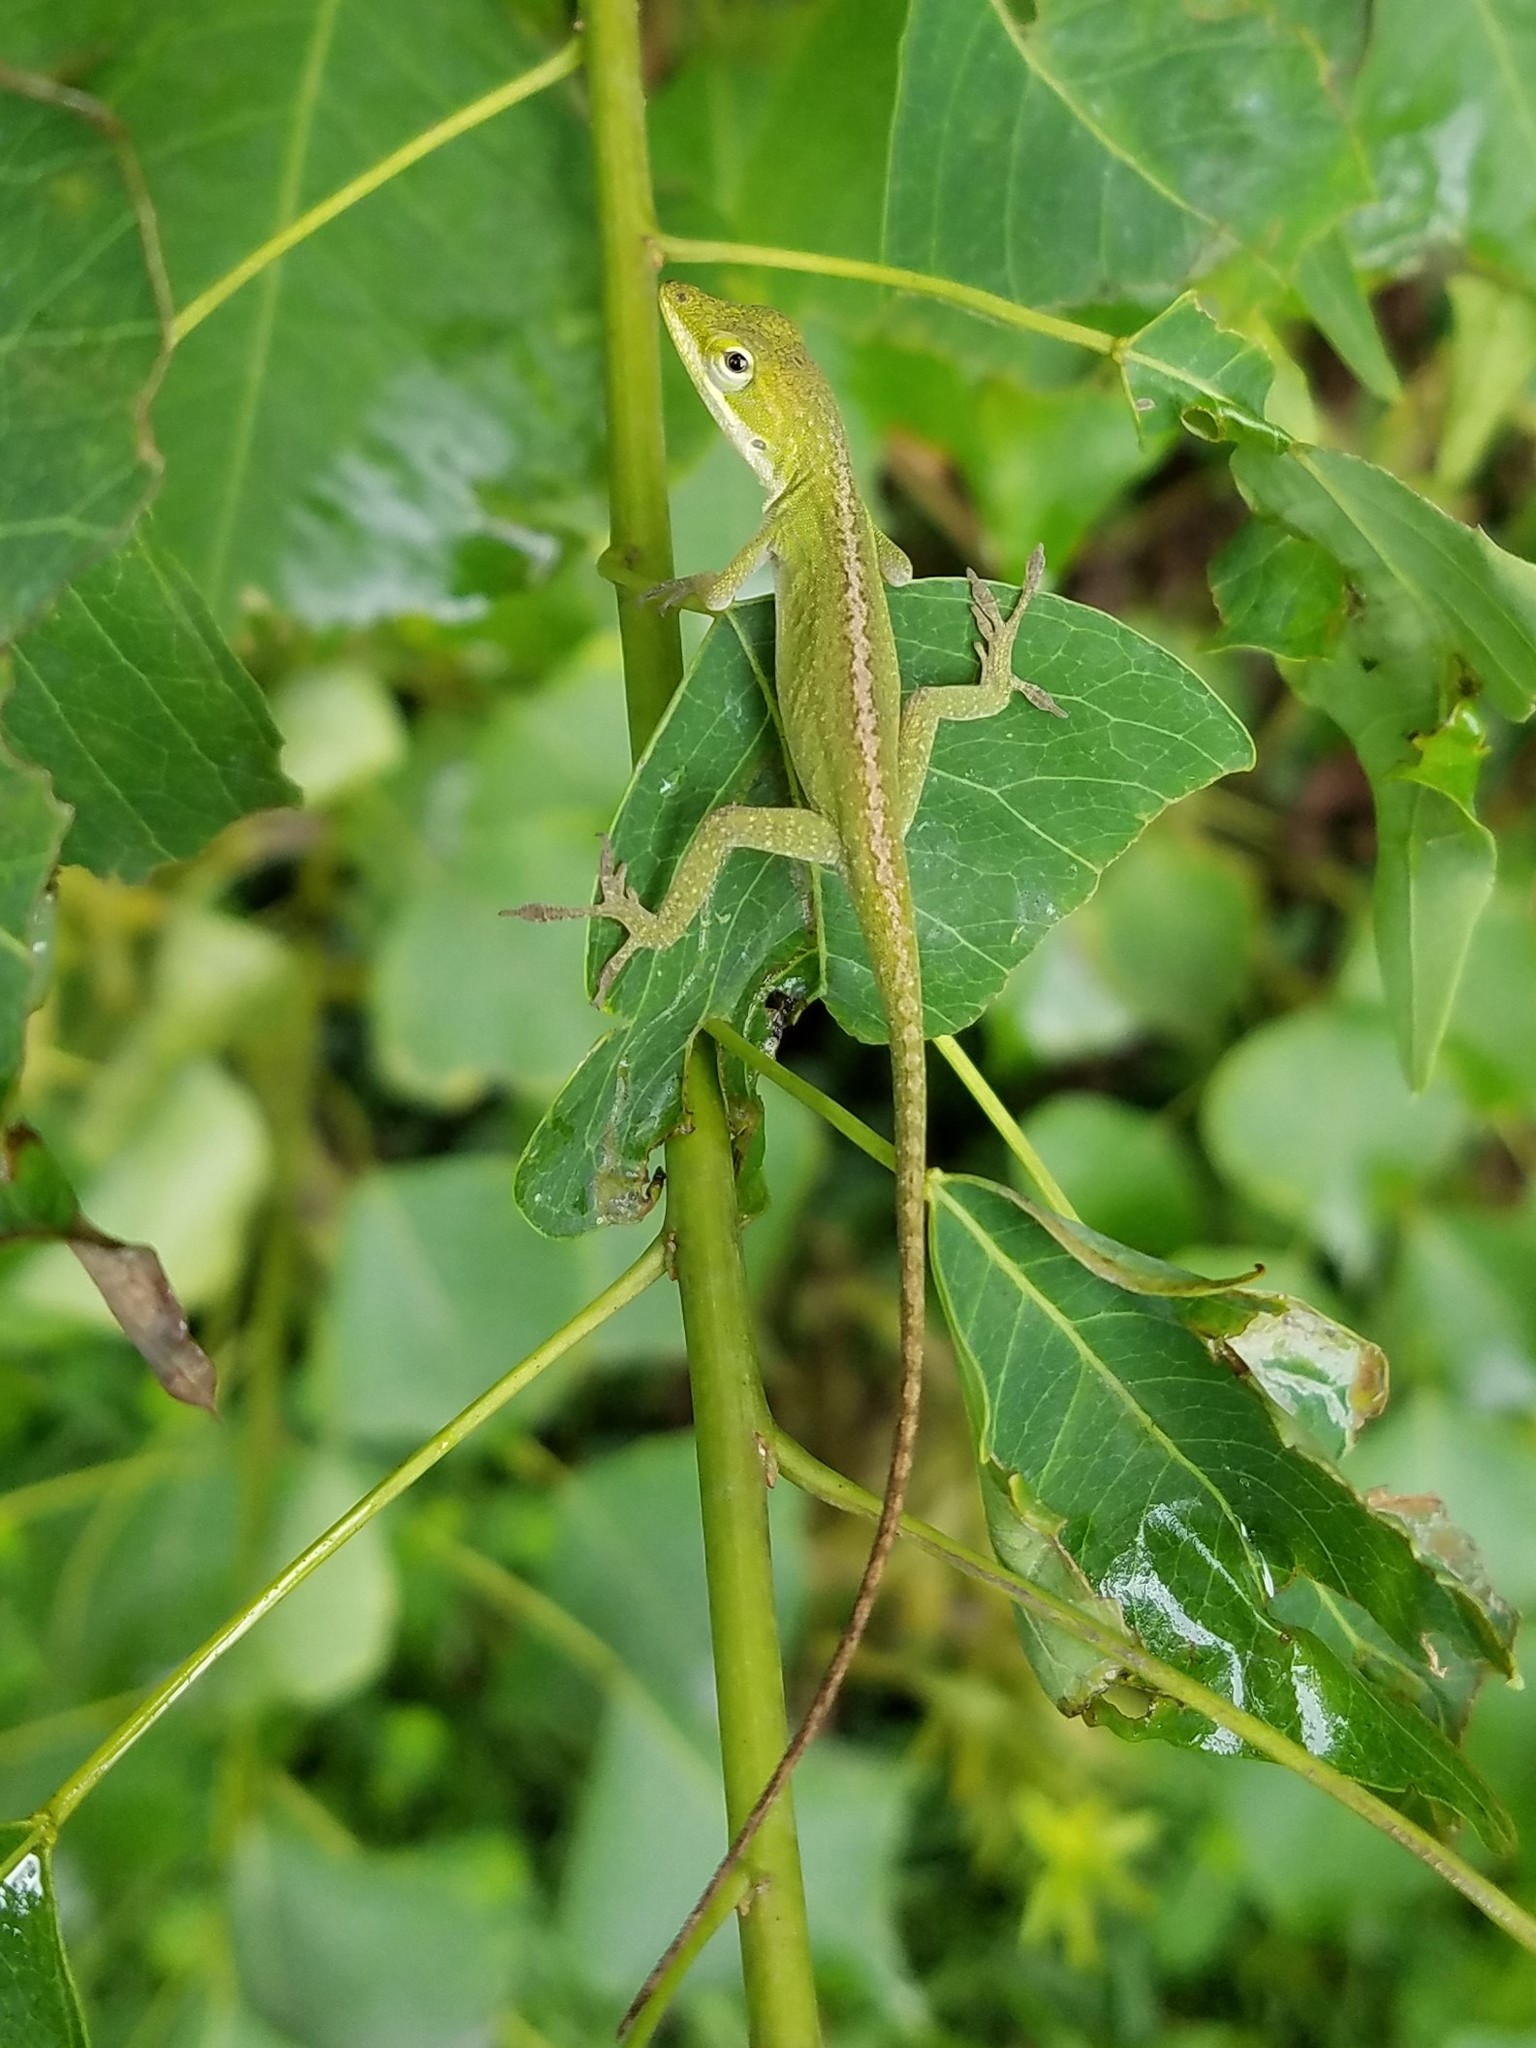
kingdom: Animalia
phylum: Chordata
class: Squamata
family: Dactyloidae
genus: Anolis
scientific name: Anolis carolinensis
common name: Green anole
